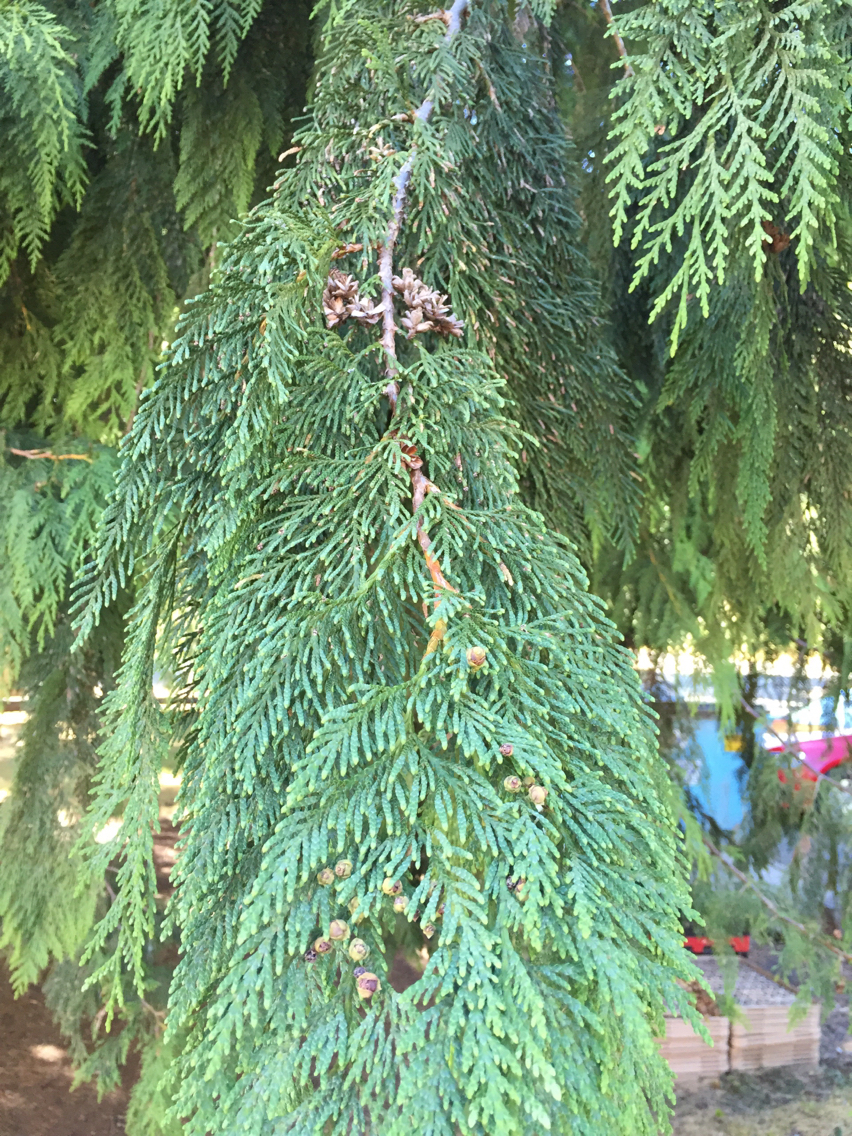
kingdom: Plantae
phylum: Tracheophyta
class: Pinopsida
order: Pinales
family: Cupressaceae
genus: Thuja
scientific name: Thuja plicata
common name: Western red-cedar
